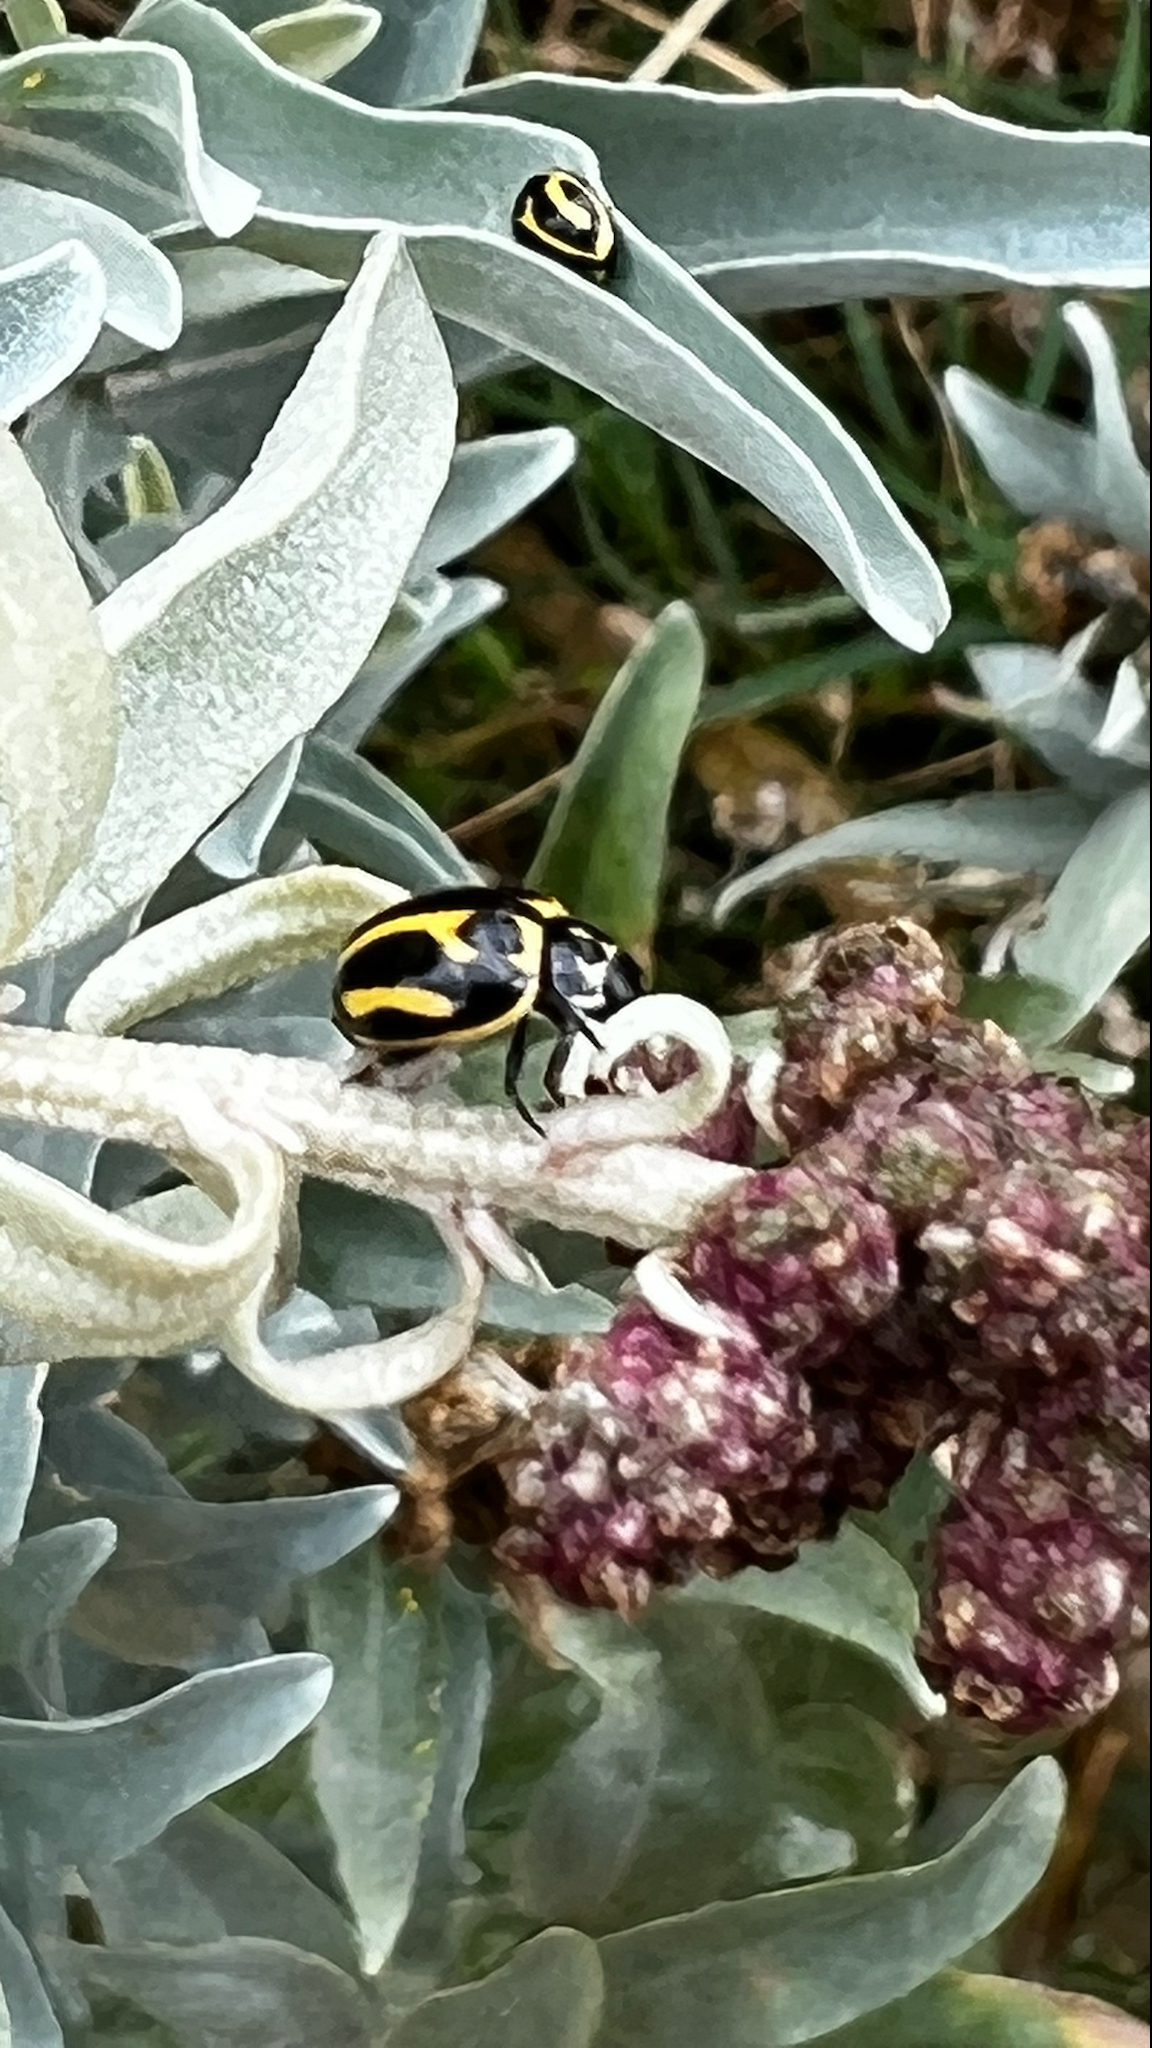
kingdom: Animalia
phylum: Arthropoda
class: Insecta
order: Coleoptera
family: Coccinellidae
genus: Micraspis
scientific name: Micraspis
